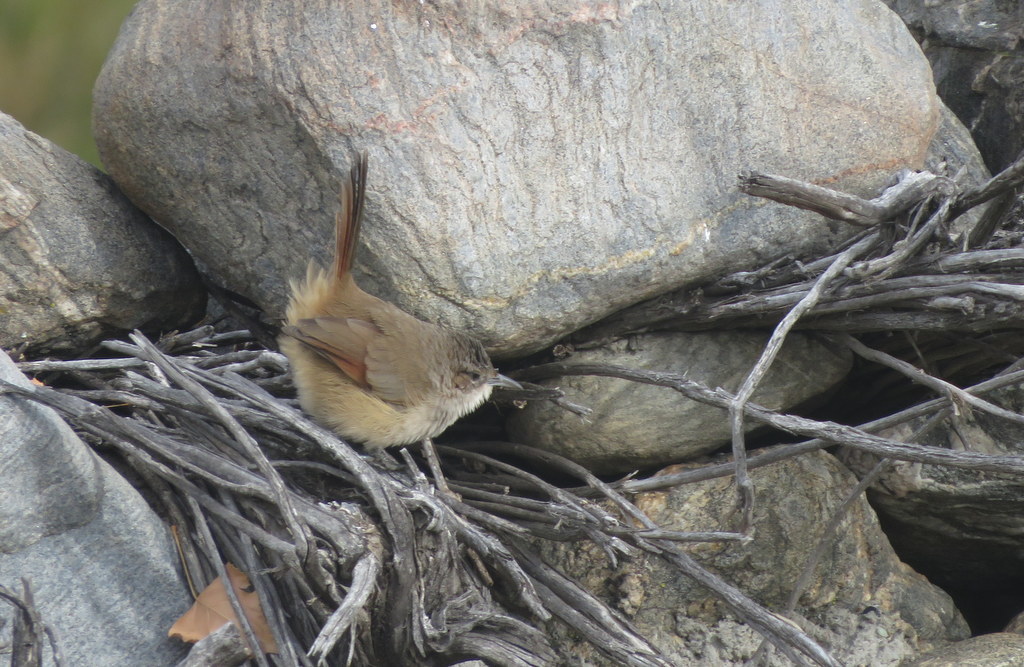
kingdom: Animalia
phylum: Chordata
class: Aves
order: Passeriformes
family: Furnariidae
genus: Phacellodomus
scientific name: Phacellodomus striaticeps
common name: Streak-fronted thornbird
